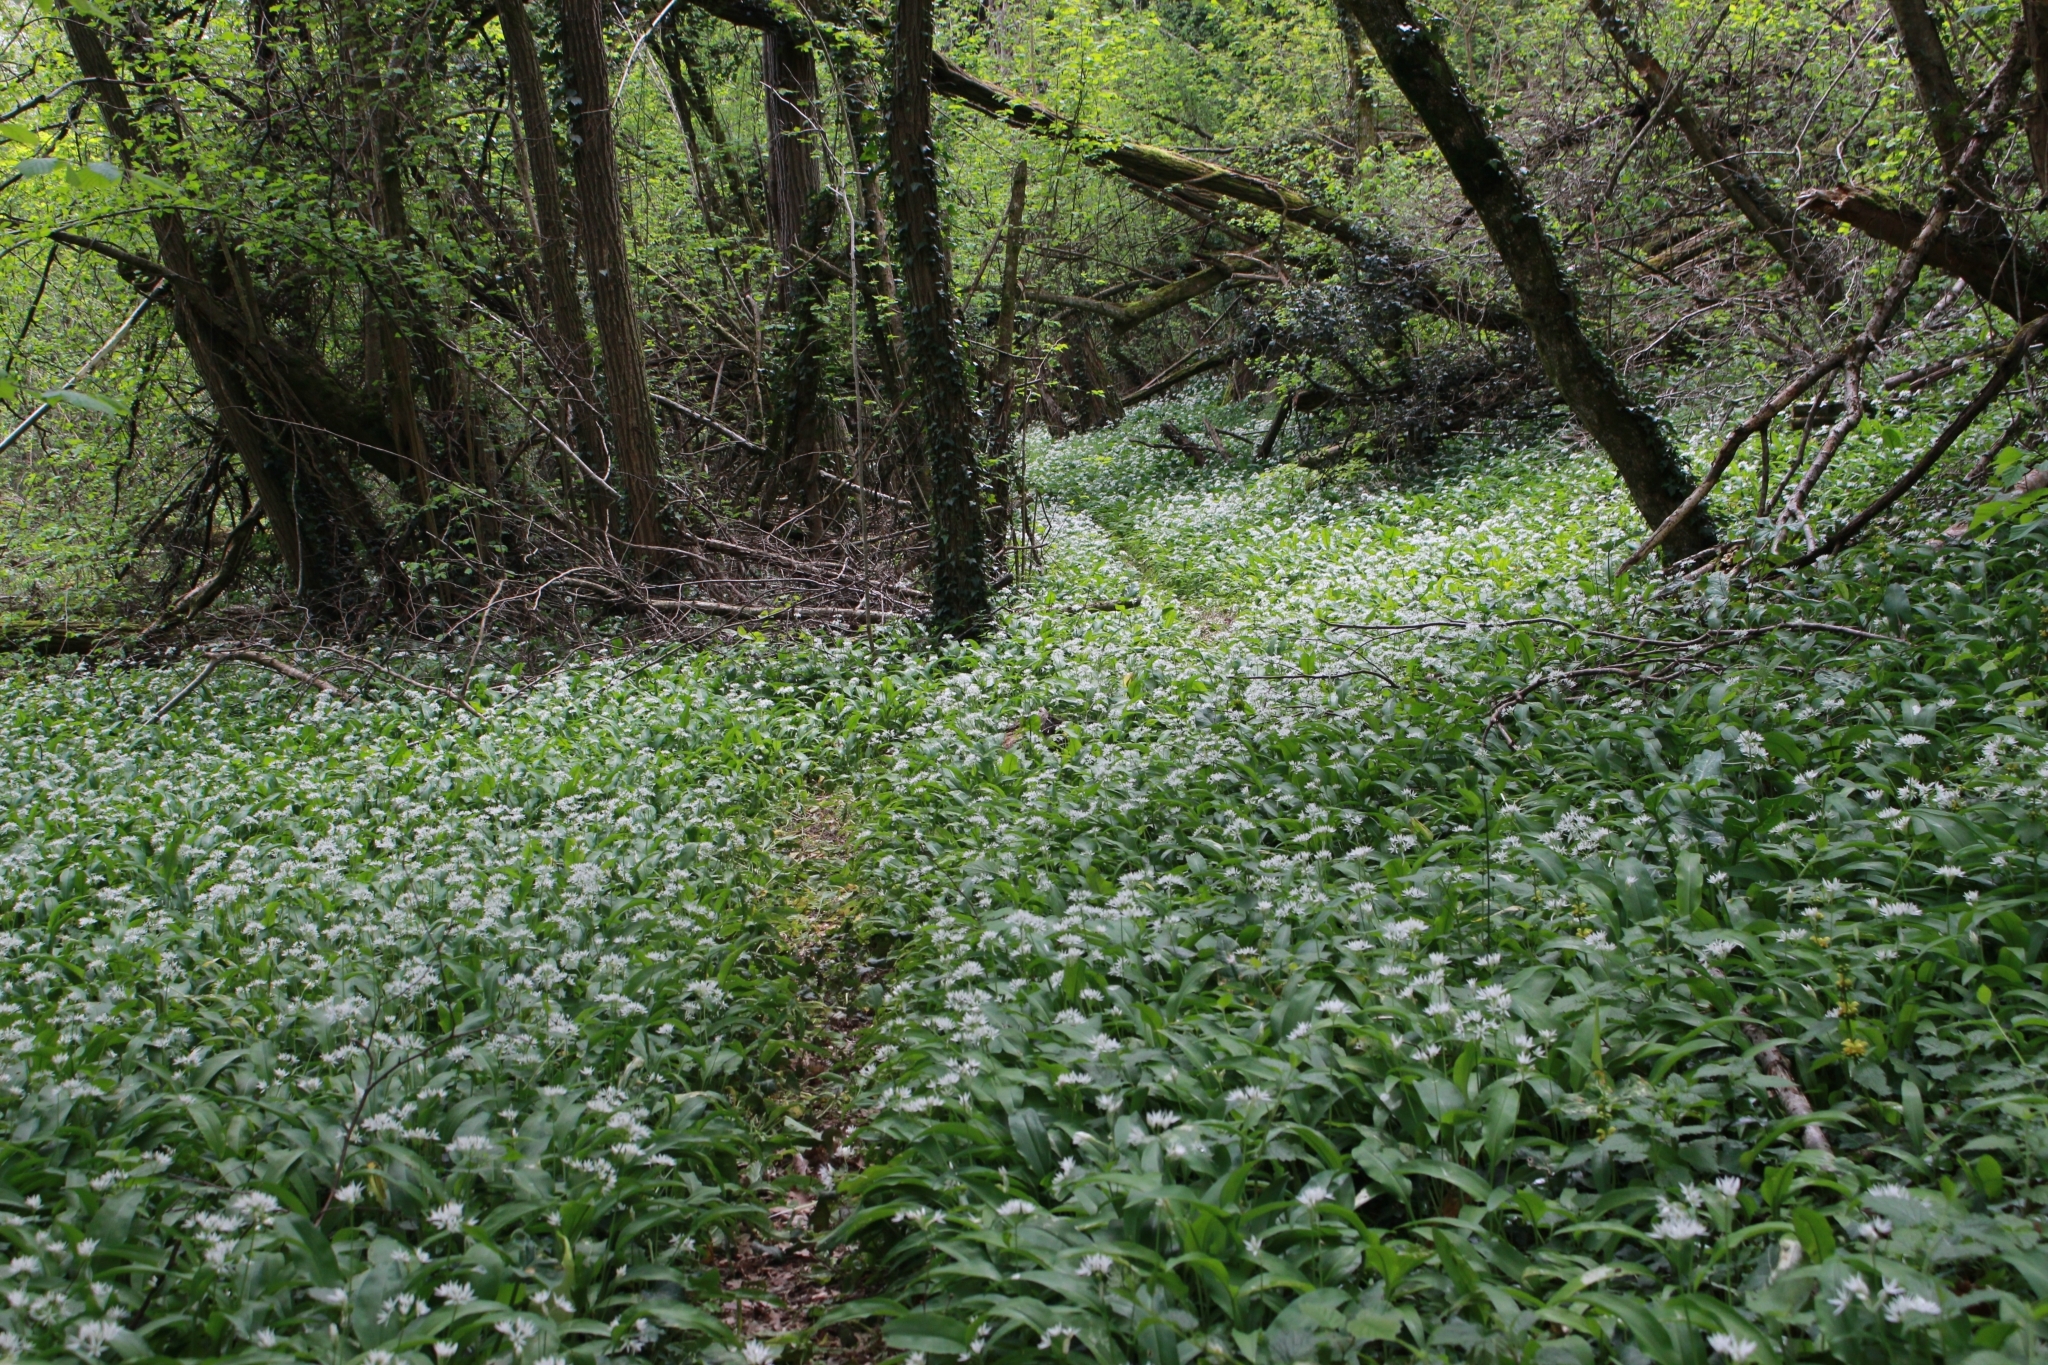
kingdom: Plantae
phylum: Tracheophyta
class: Liliopsida
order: Asparagales
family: Amaryllidaceae
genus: Allium
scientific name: Allium ursinum
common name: Ramsons
